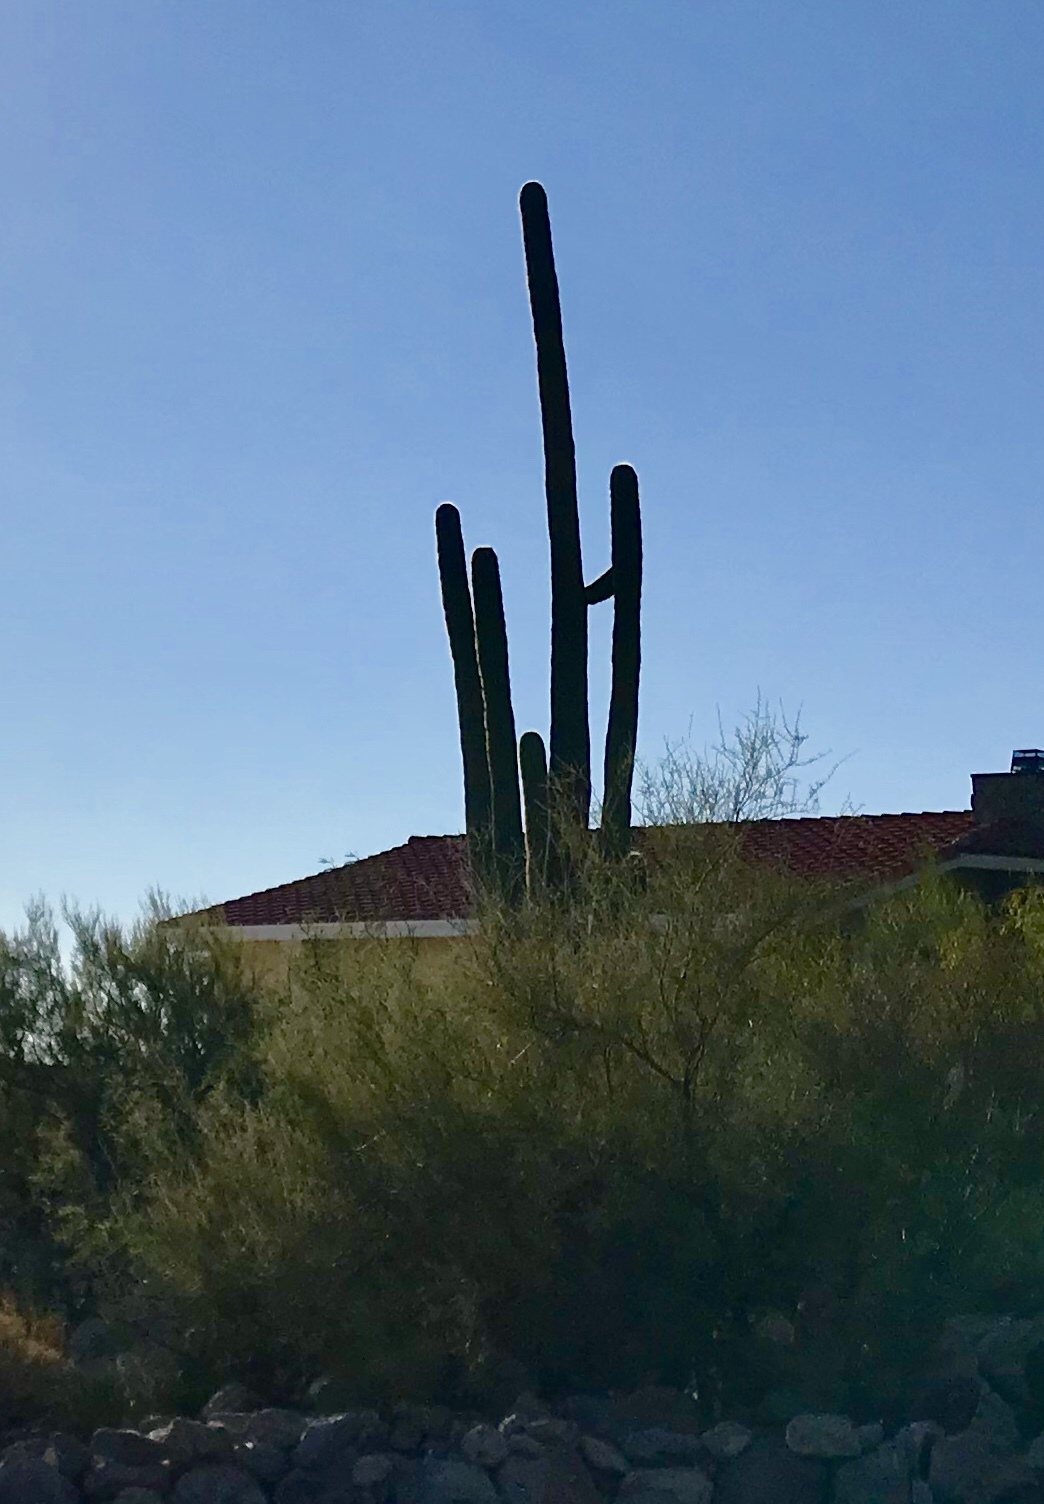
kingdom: Plantae
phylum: Tracheophyta
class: Magnoliopsida
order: Caryophyllales
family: Cactaceae
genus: Carnegiea
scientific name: Carnegiea gigantea
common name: Saguaro
